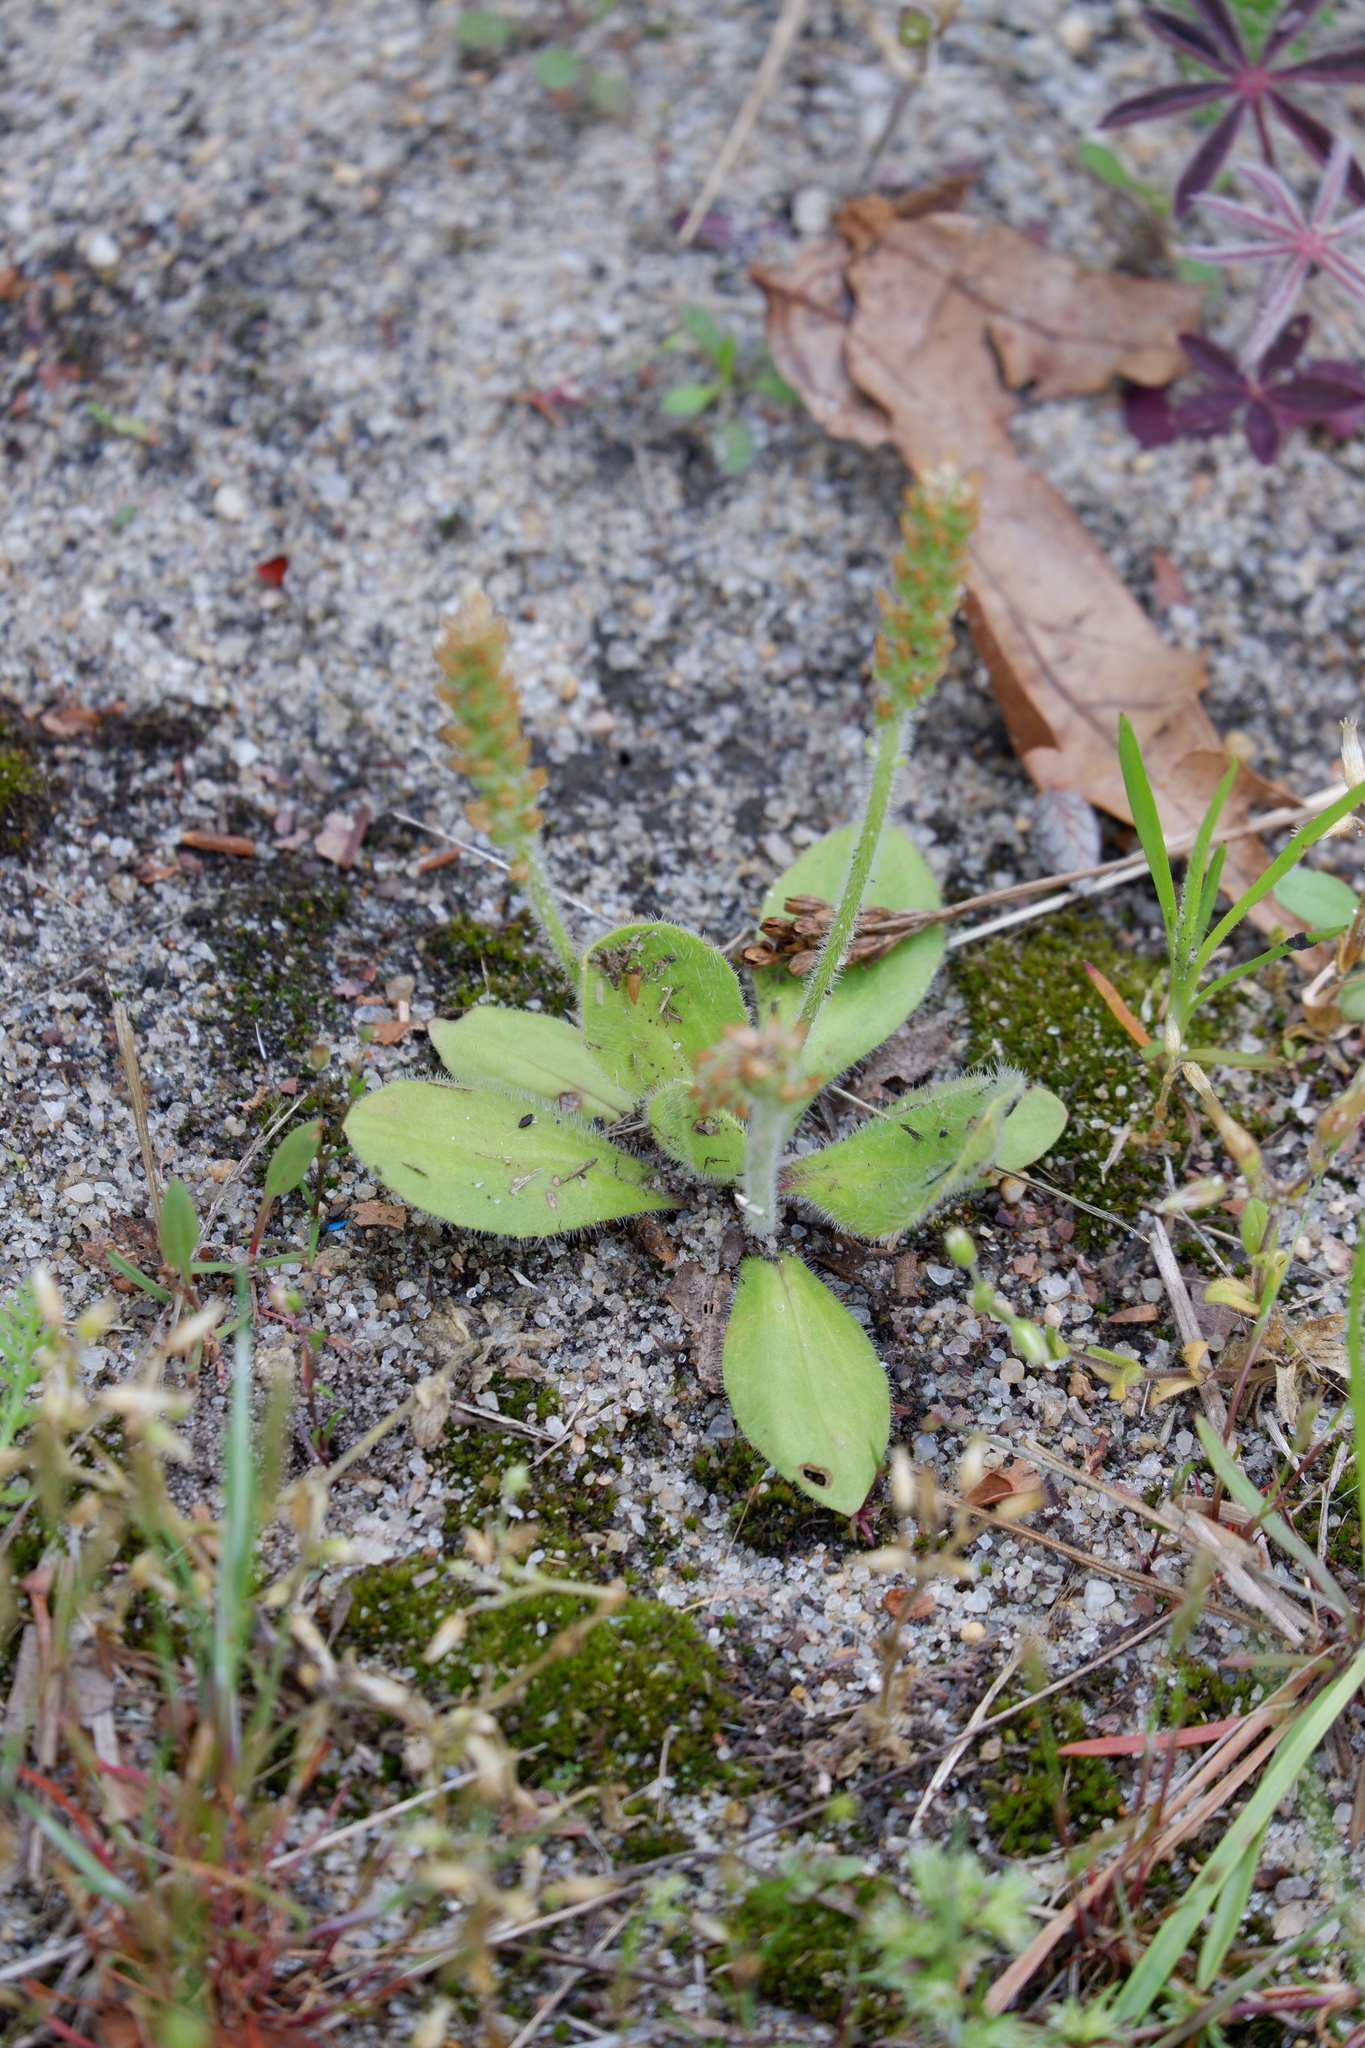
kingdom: Plantae
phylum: Tracheophyta
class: Magnoliopsida
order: Lamiales
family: Plantaginaceae
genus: Plantago
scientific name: Plantago virginica
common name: Hoary plantain
